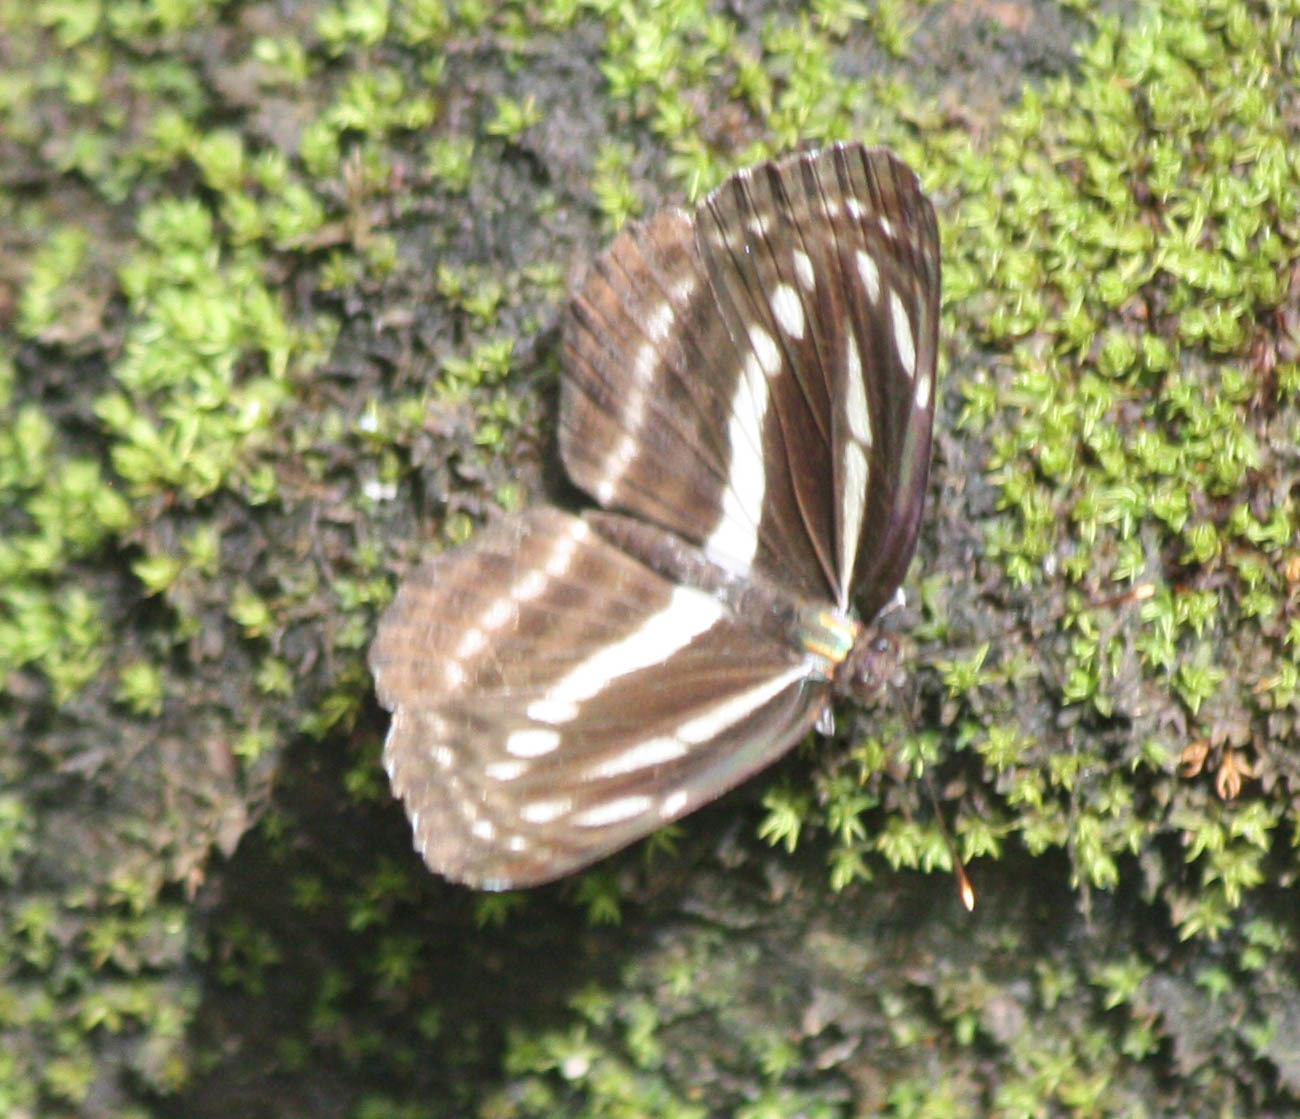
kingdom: Animalia
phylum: Arthropoda
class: Insecta
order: Lepidoptera
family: Nymphalidae
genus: Neptis
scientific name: Neptis clinia
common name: Southern sullied sailer
